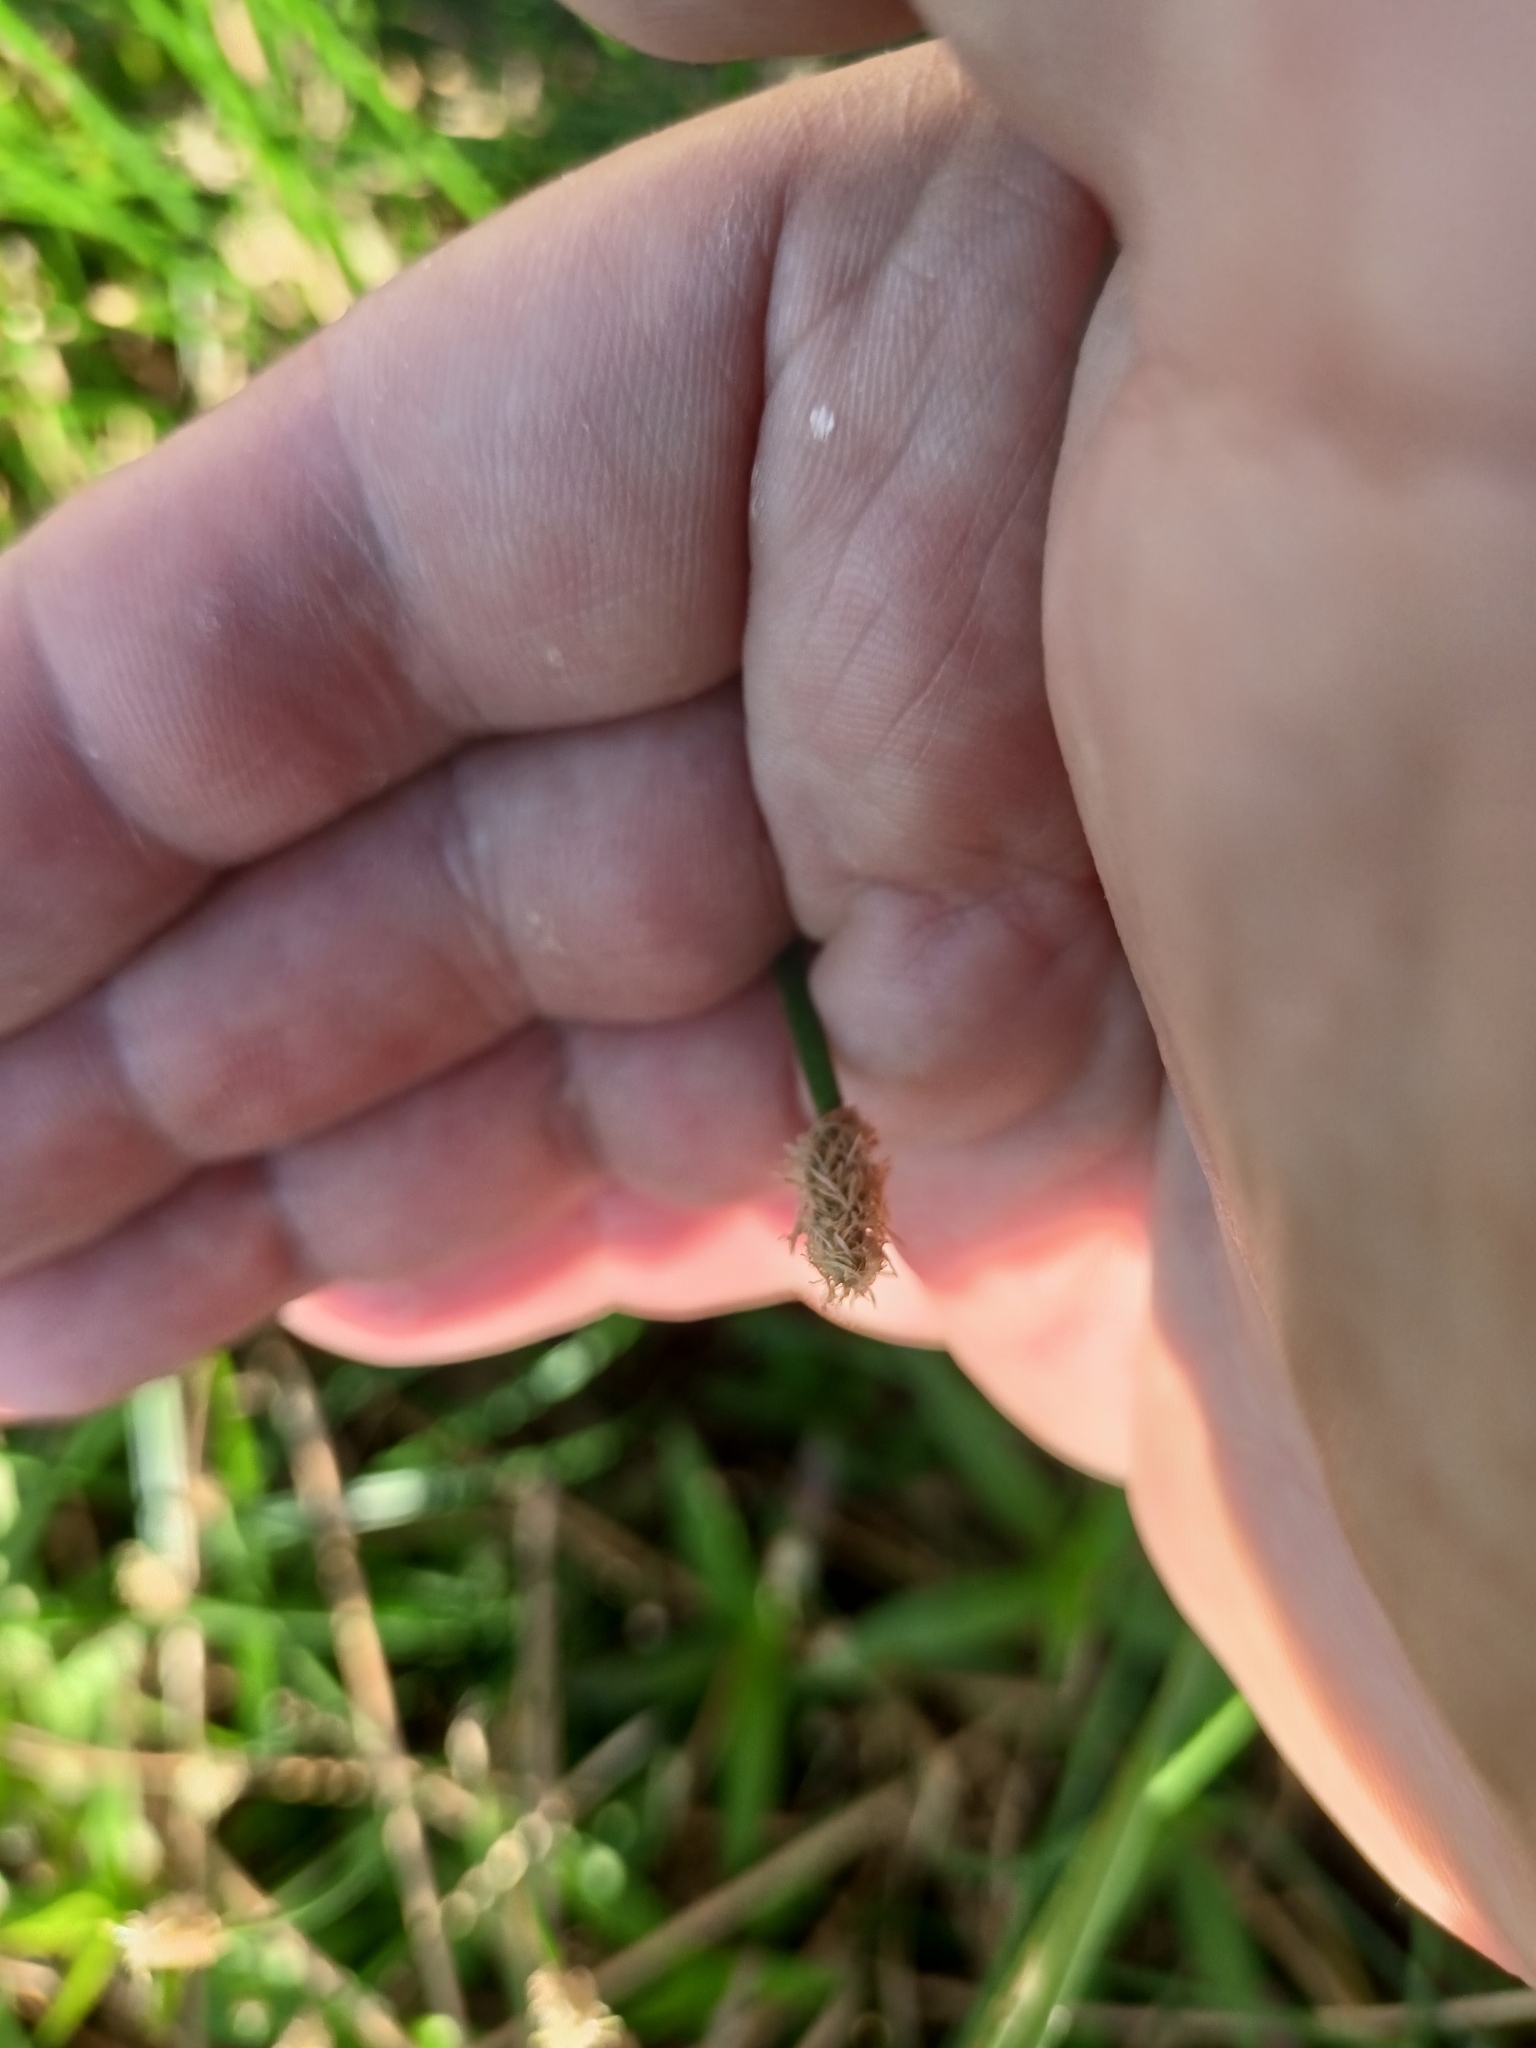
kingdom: Plantae
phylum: Tracheophyta
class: Liliopsida
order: Poales
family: Cyperaceae
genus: Eleocharis
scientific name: Eleocharis palustris
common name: Common spike-rush
